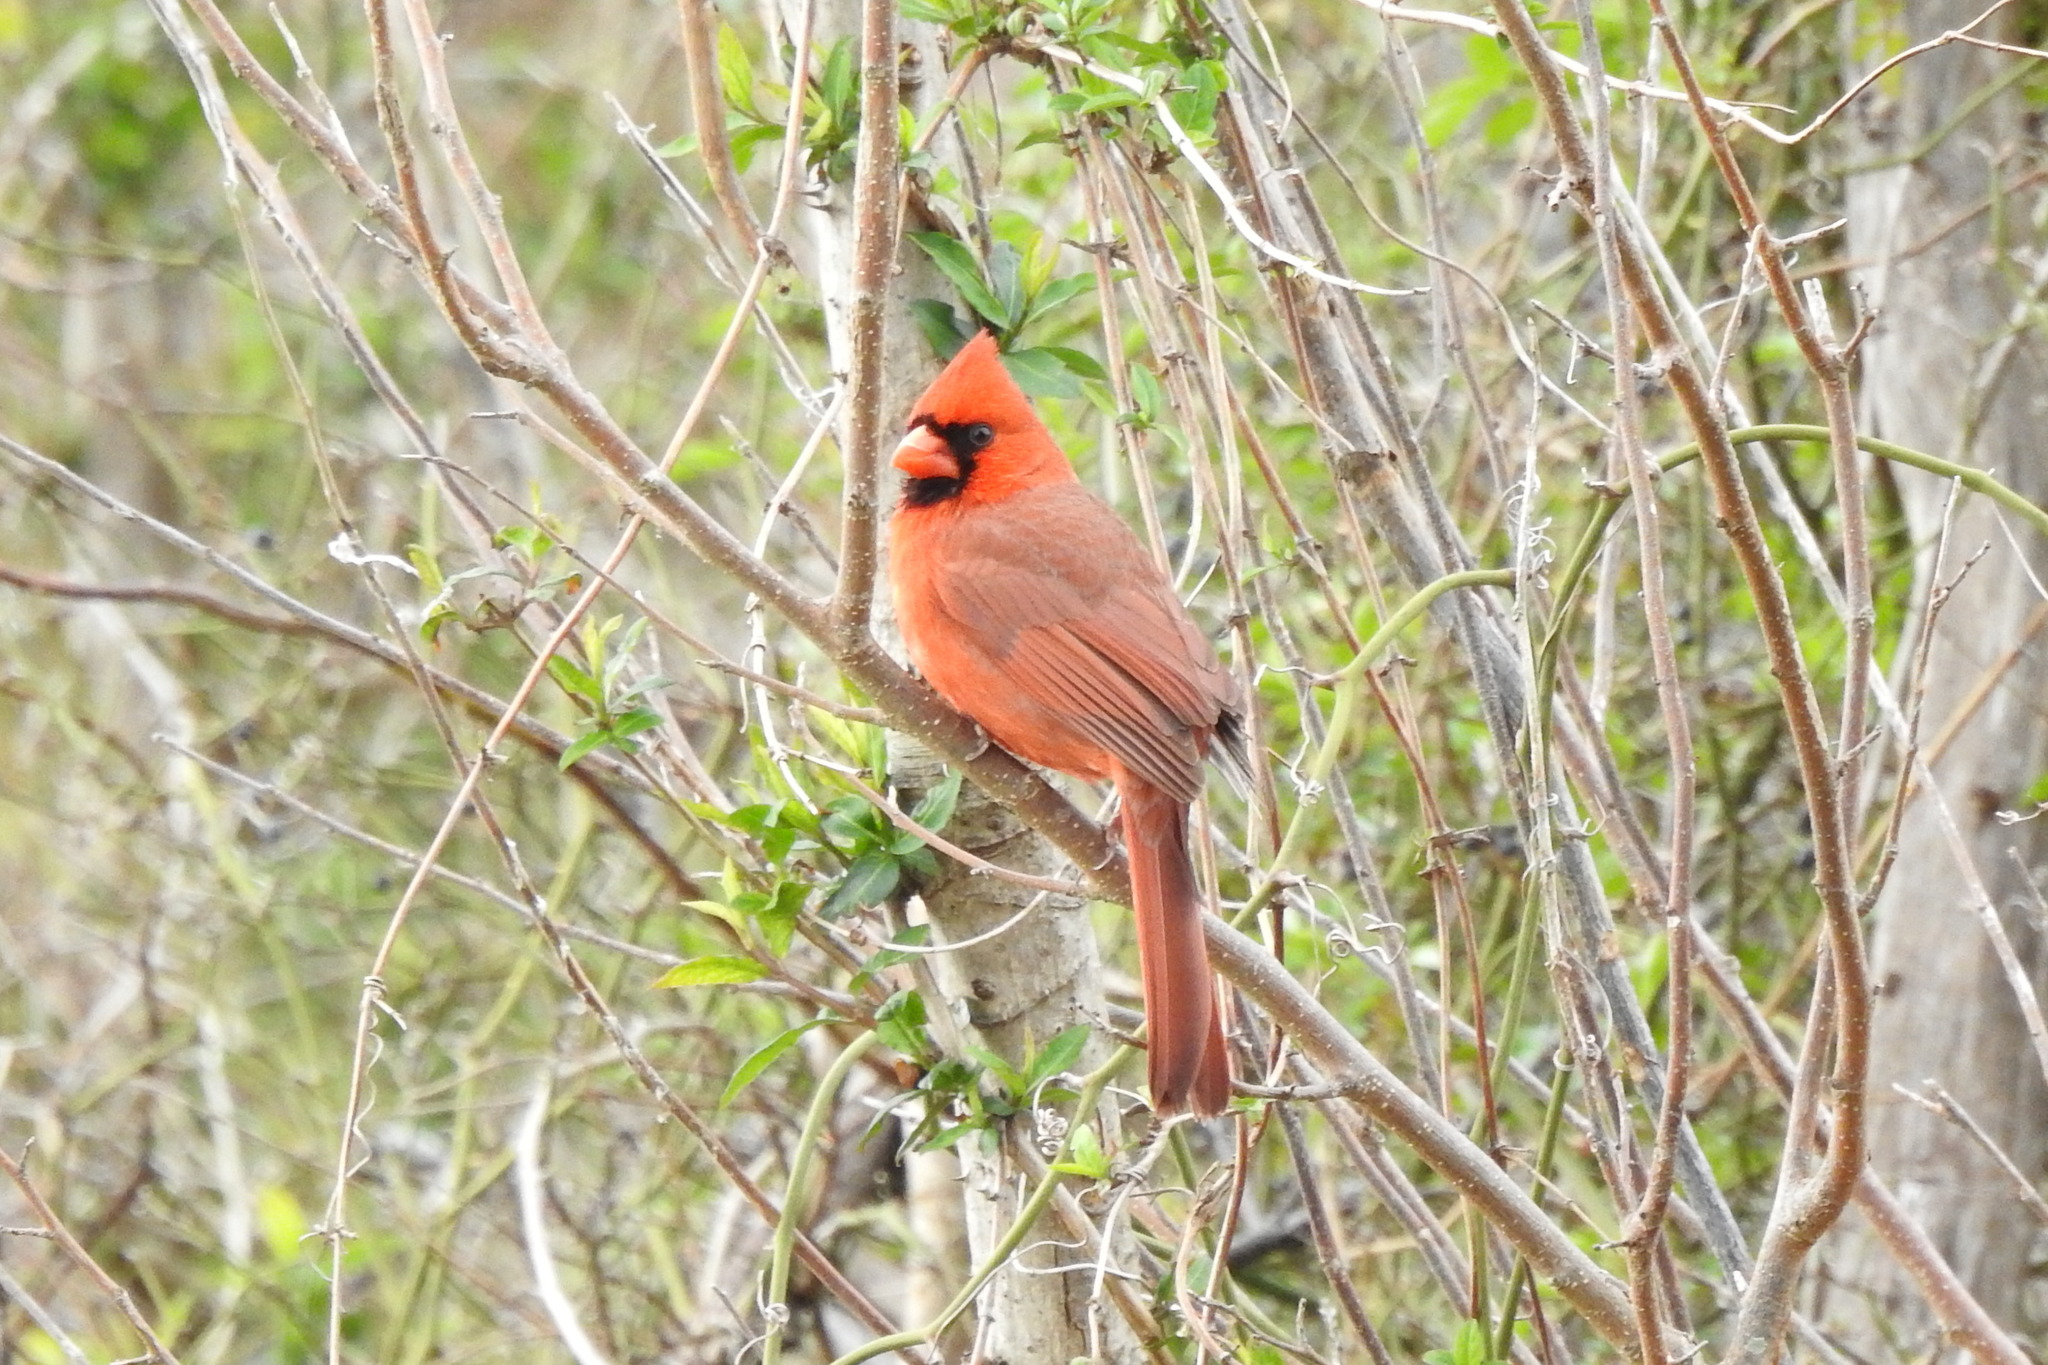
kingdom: Animalia
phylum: Chordata
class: Aves
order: Passeriformes
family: Cardinalidae
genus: Cardinalis
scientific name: Cardinalis cardinalis
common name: Northern cardinal
